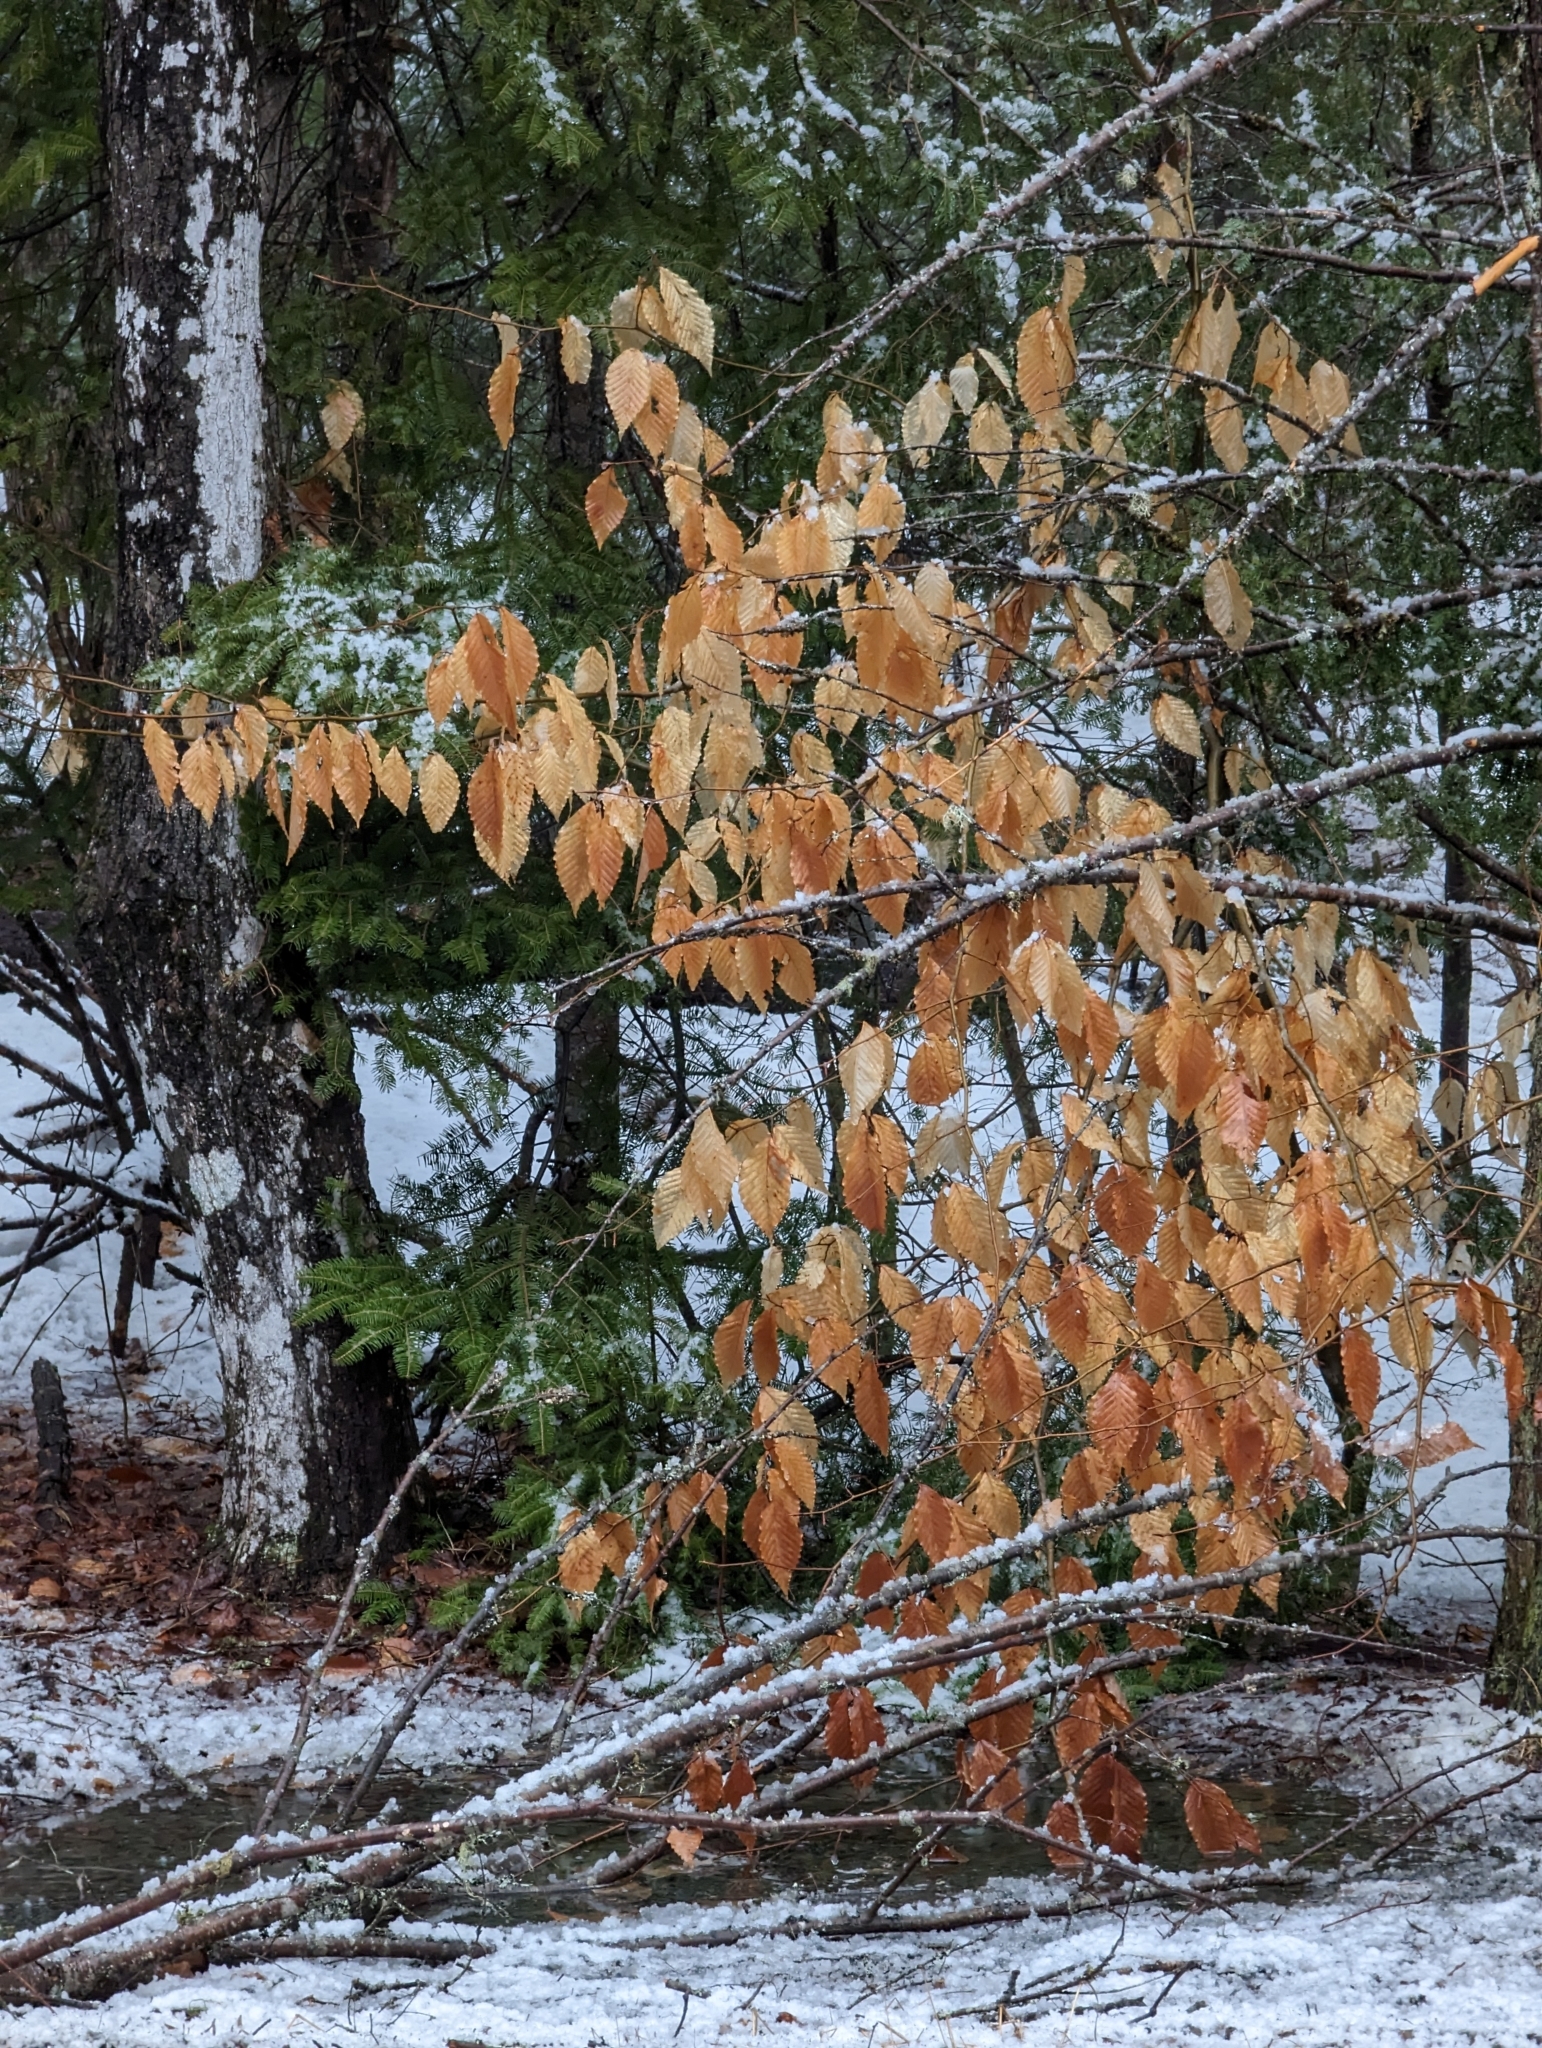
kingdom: Plantae
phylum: Tracheophyta
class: Magnoliopsida
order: Fagales
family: Fagaceae
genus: Fagus
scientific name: Fagus grandifolia
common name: American beech
